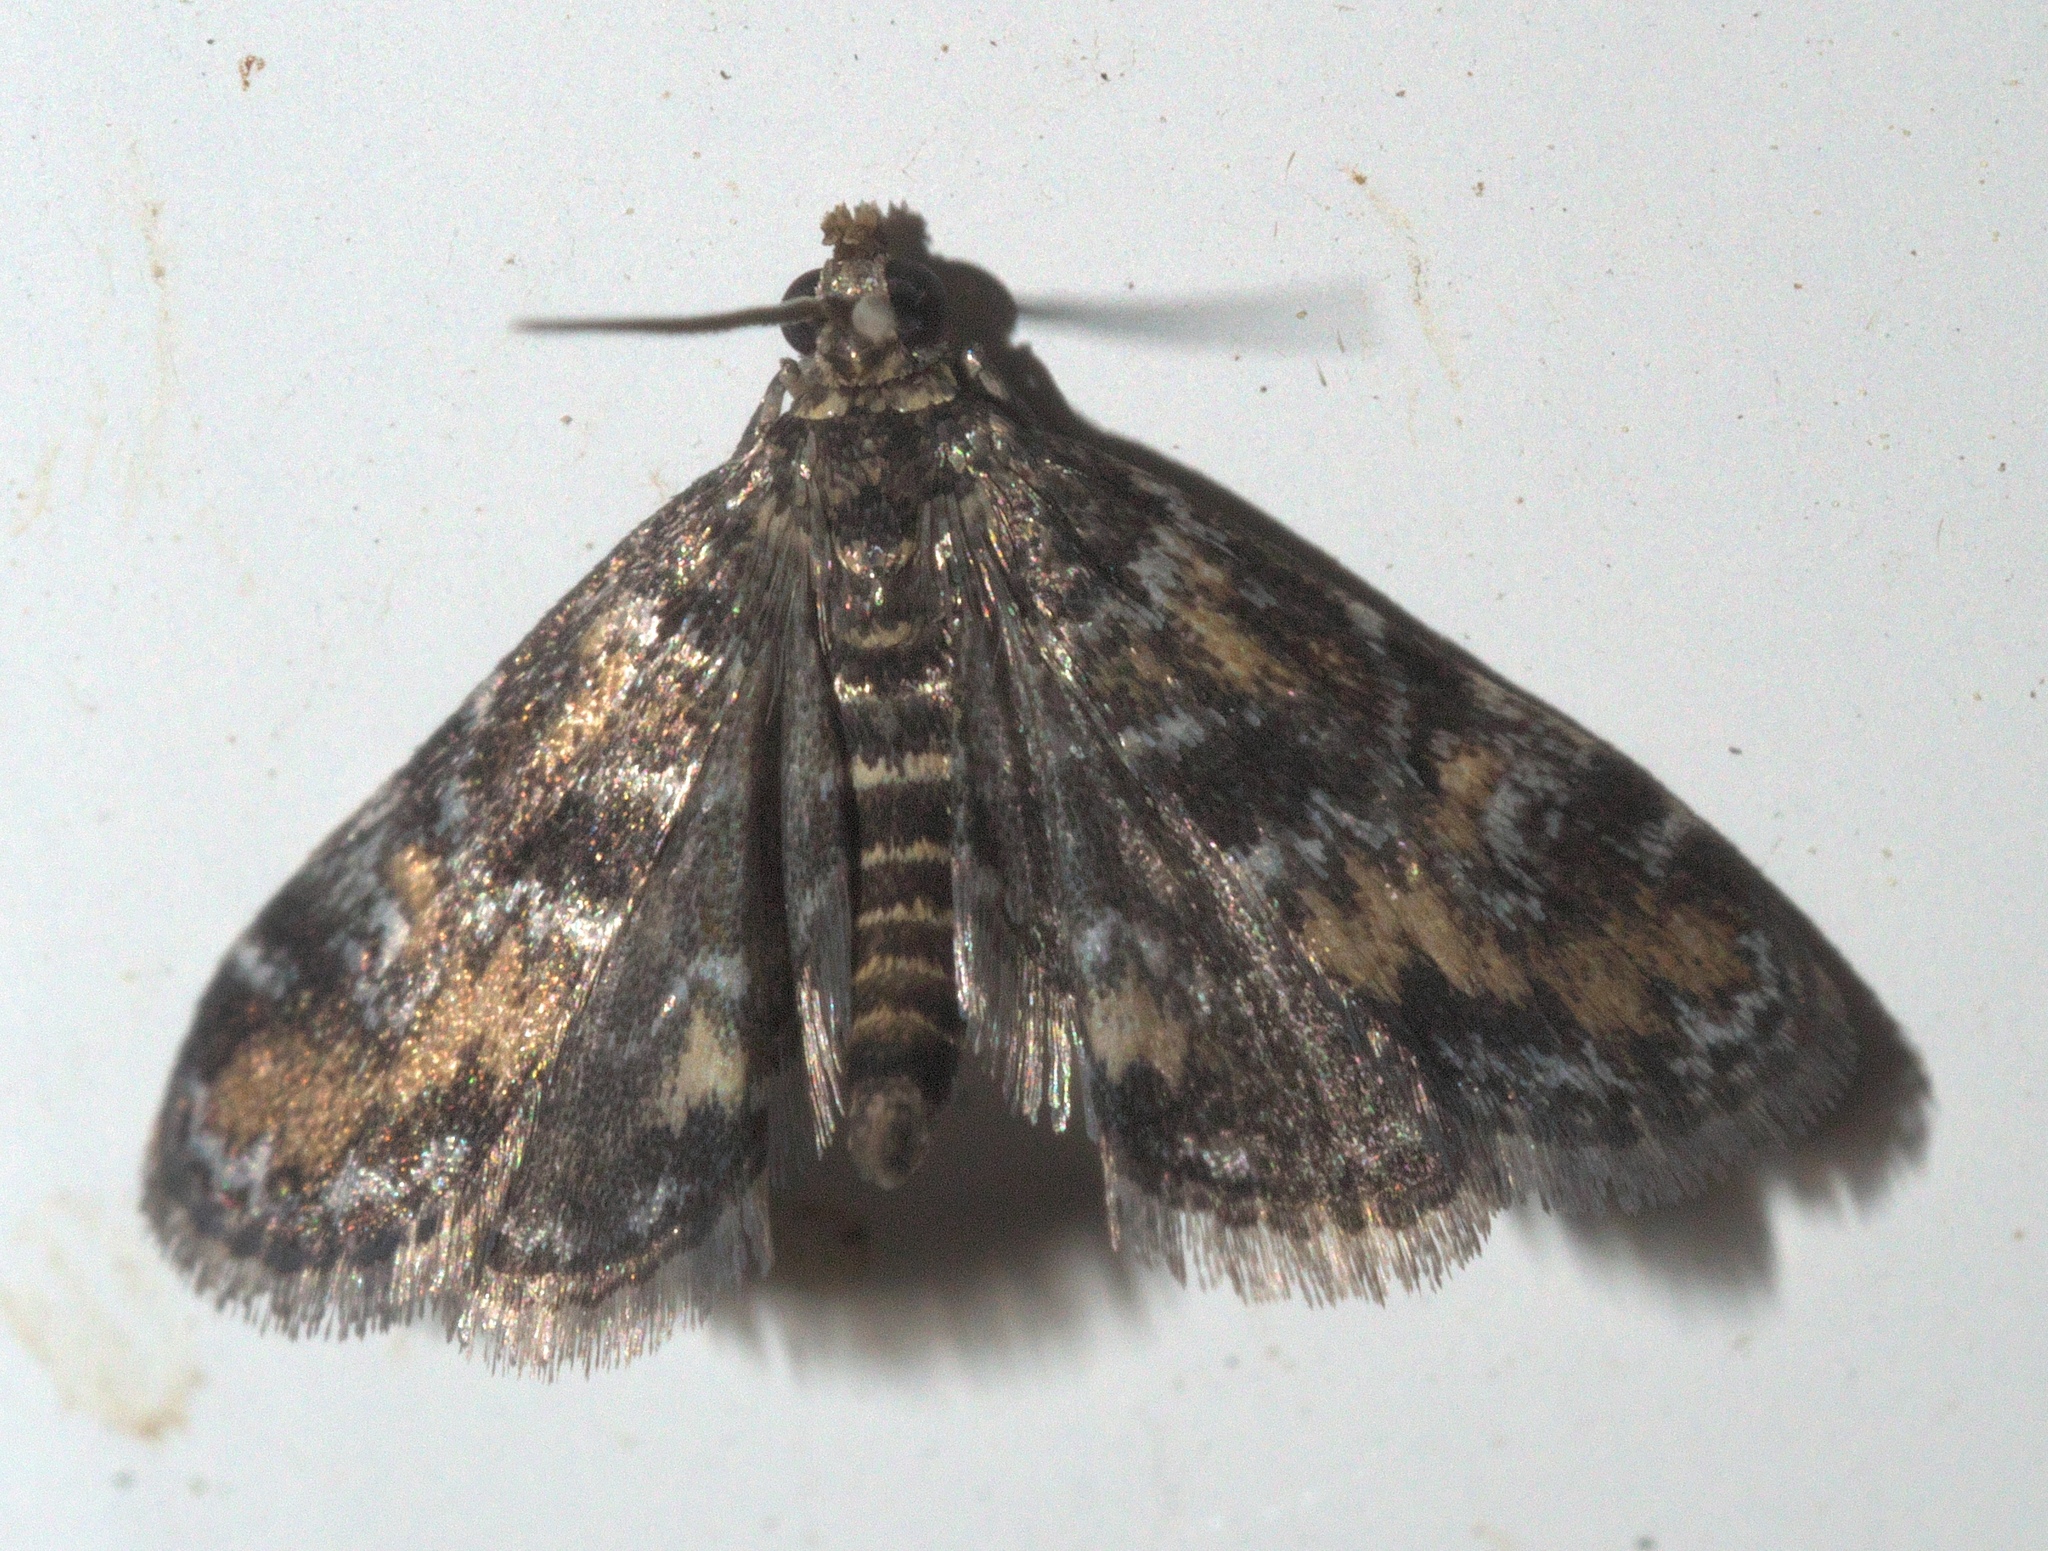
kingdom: Animalia
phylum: Arthropoda
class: Insecta
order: Lepidoptera
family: Crambidae
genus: Elophila
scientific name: Elophila obliteralis
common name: Waterlily leafcutter moth
